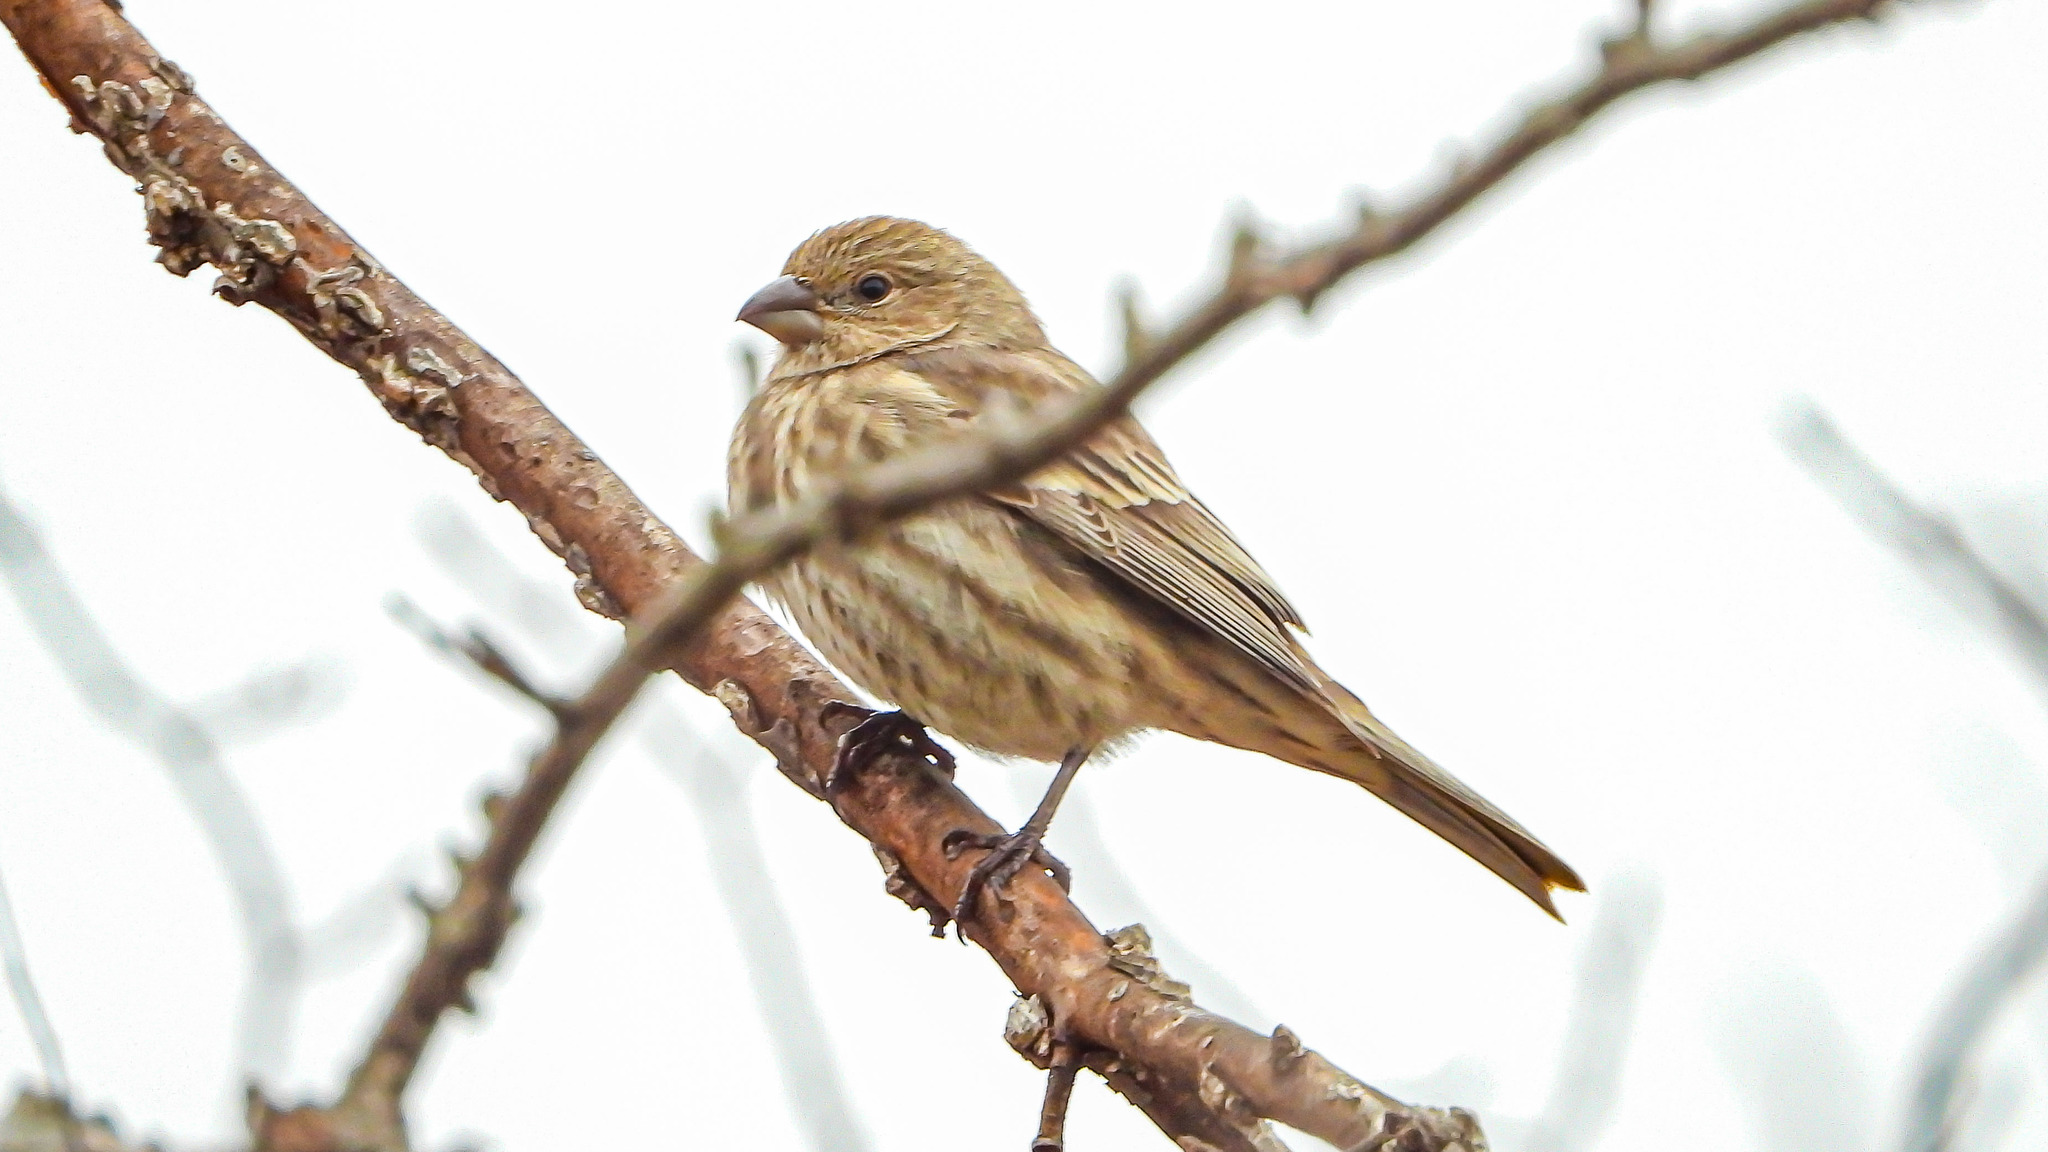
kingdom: Animalia
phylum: Chordata
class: Aves
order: Passeriformes
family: Fringillidae
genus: Haemorhous
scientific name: Haemorhous mexicanus
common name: House finch
